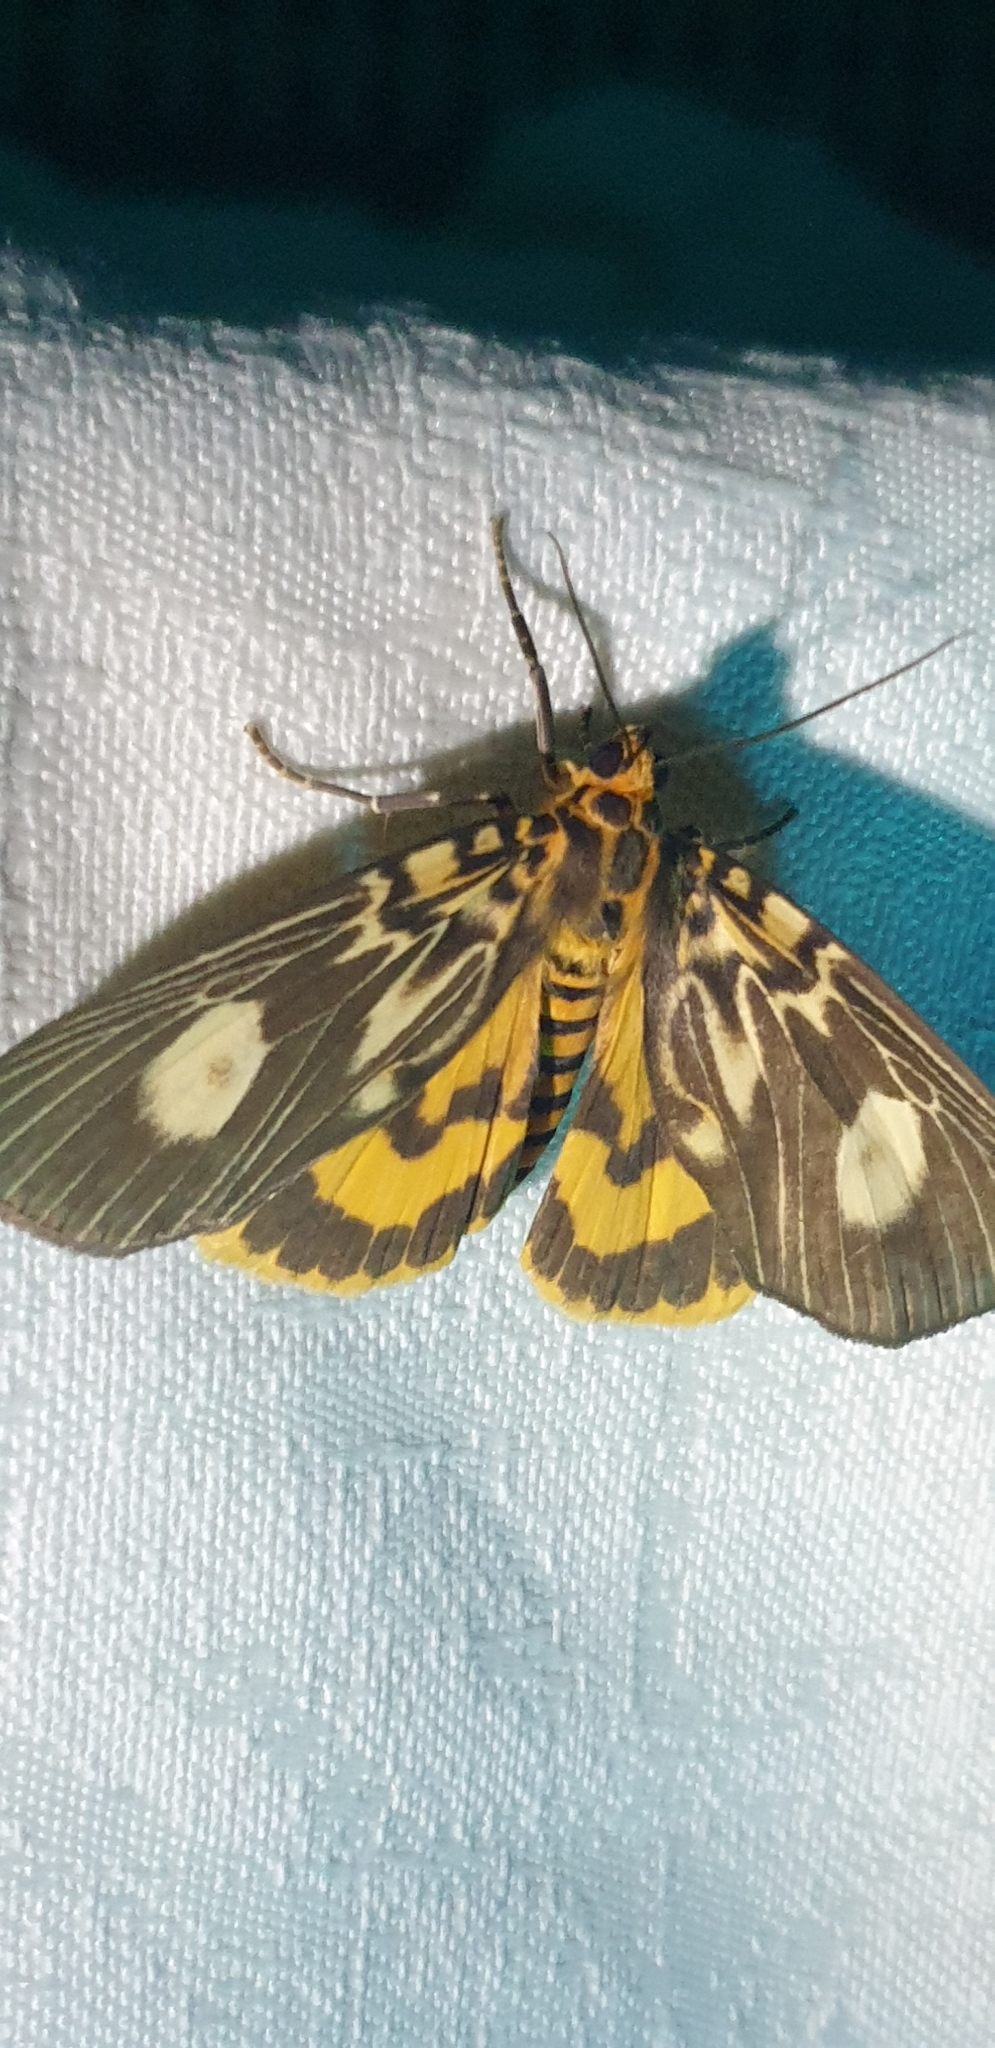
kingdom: Animalia
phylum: Arthropoda
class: Insecta
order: Lepidoptera
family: Erebidae
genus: Asota
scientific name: Asota plagiata
